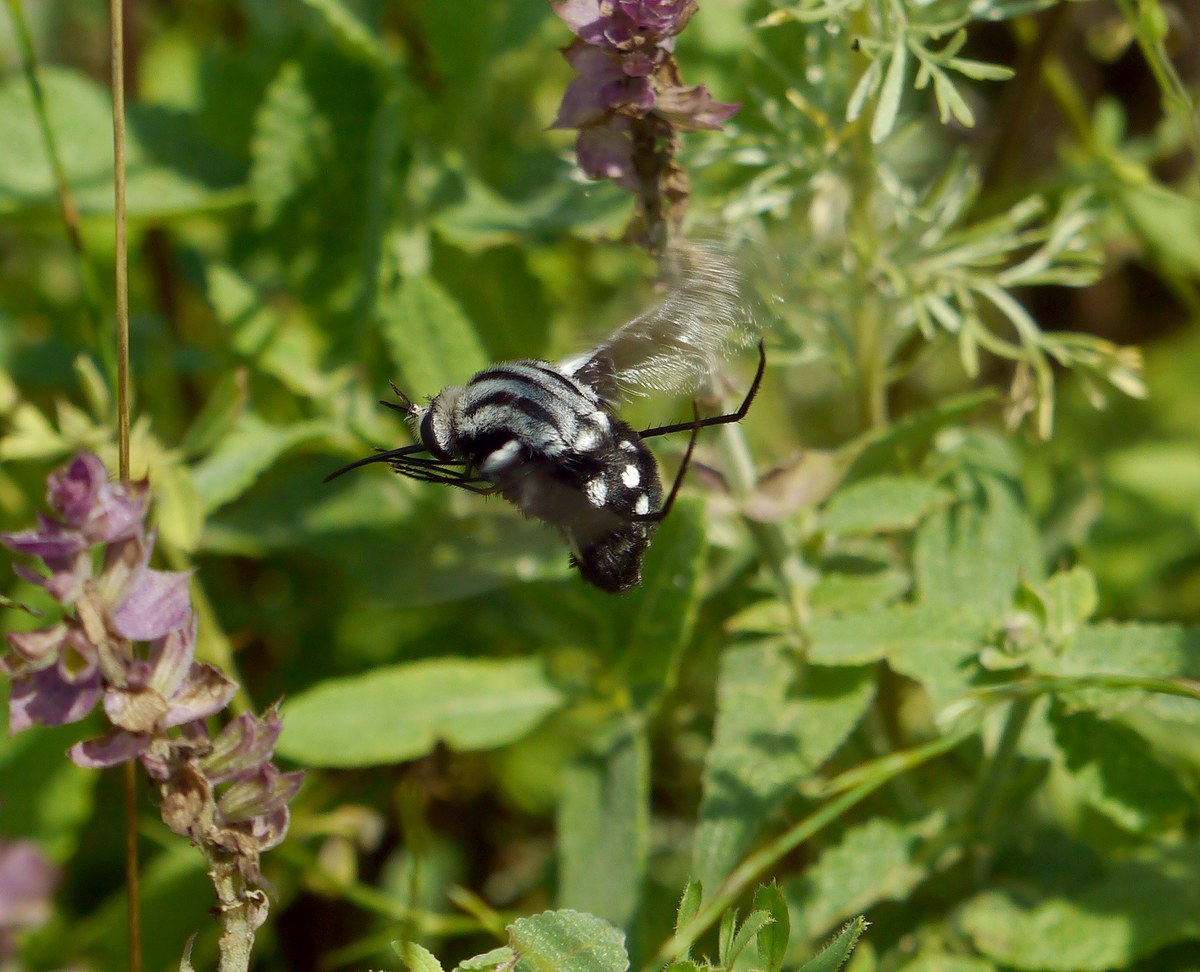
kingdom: Animalia
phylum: Arthropoda
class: Insecta
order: Diptera
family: Bombyliidae
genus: Bombomyia
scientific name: Bombomyia vertebralis
